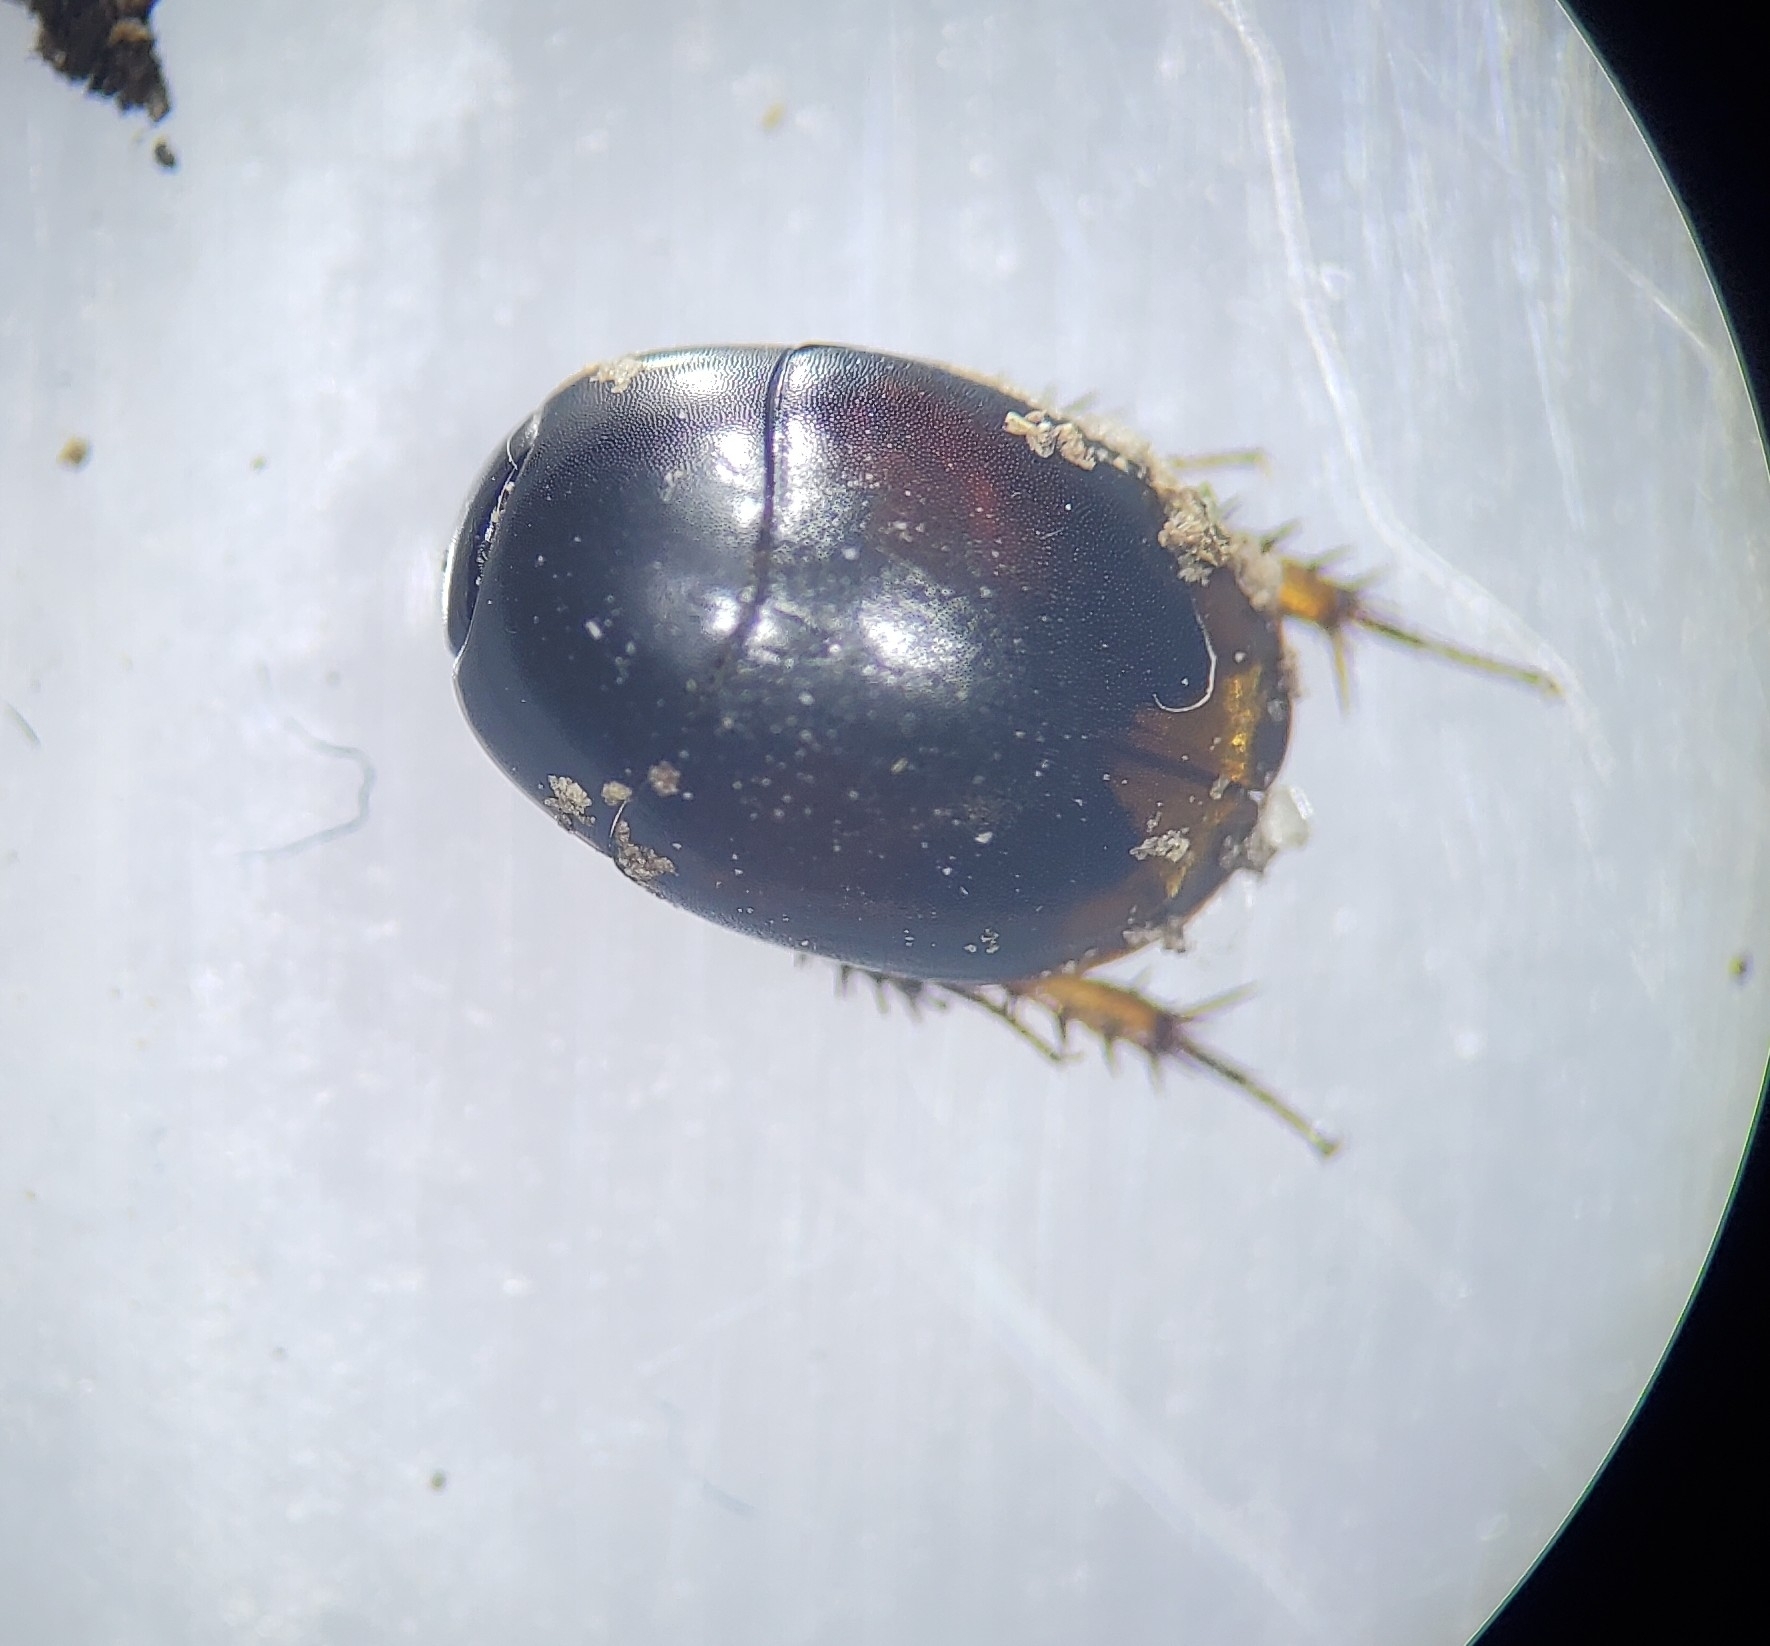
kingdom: Animalia
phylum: Arthropoda
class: Insecta
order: Coleoptera
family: Hydrophilidae
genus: Sphaeridium
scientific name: Sphaeridium
